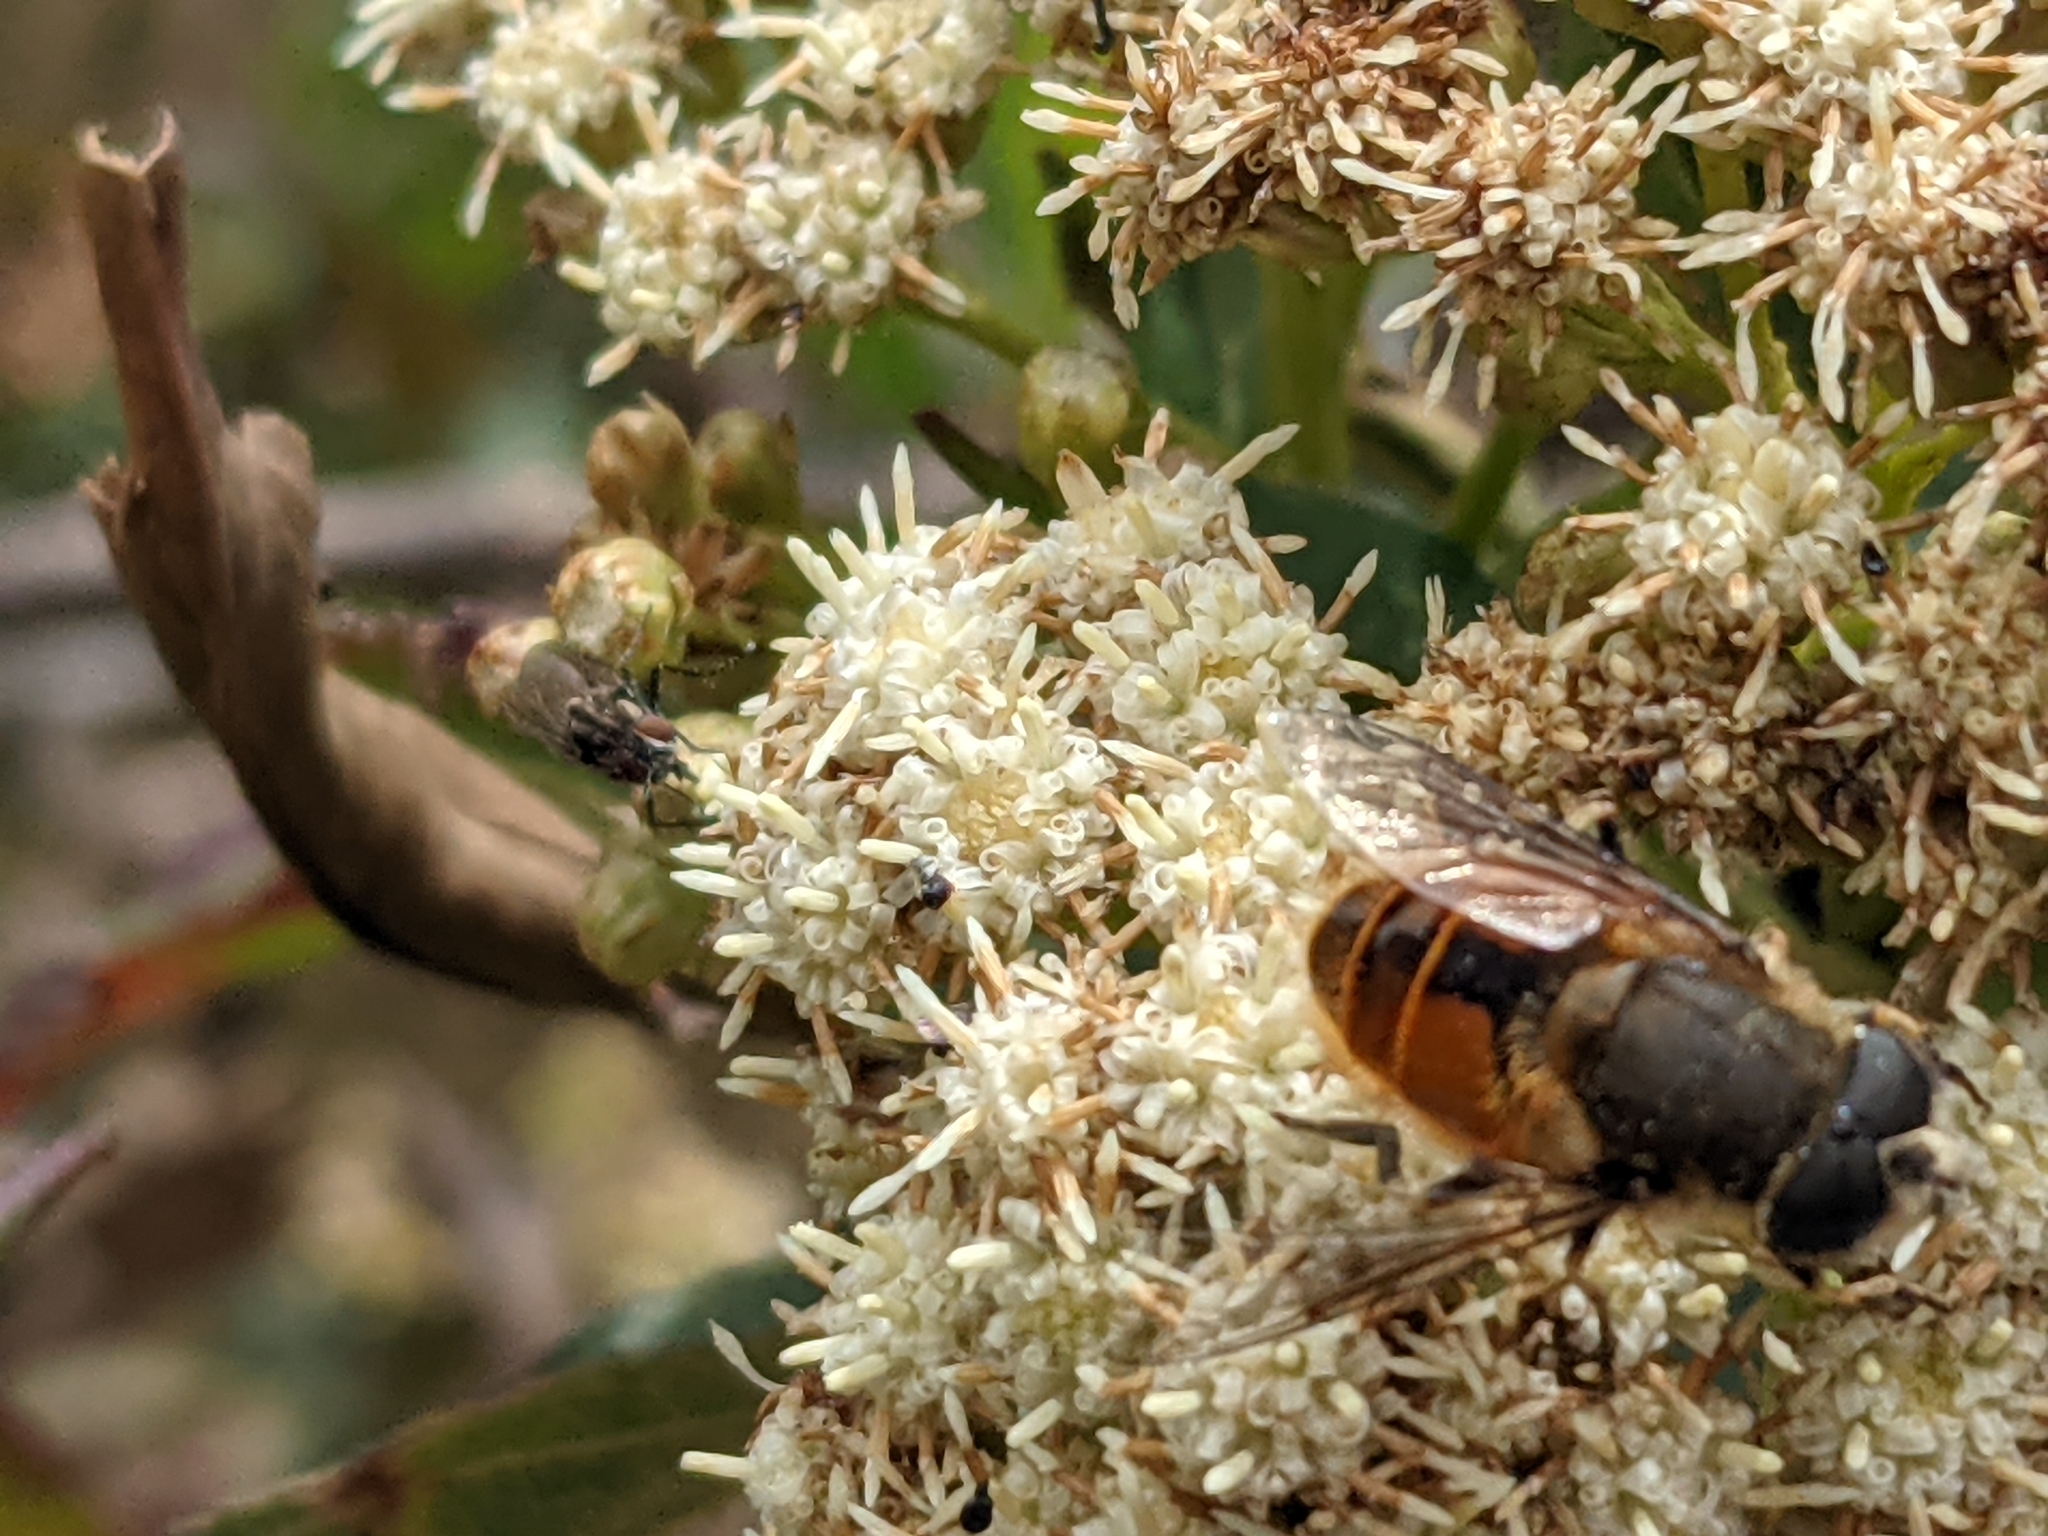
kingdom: Animalia
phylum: Arthropoda
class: Insecta
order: Diptera
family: Syrphidae
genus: Eristalis
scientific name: Eristalis bogotensis
